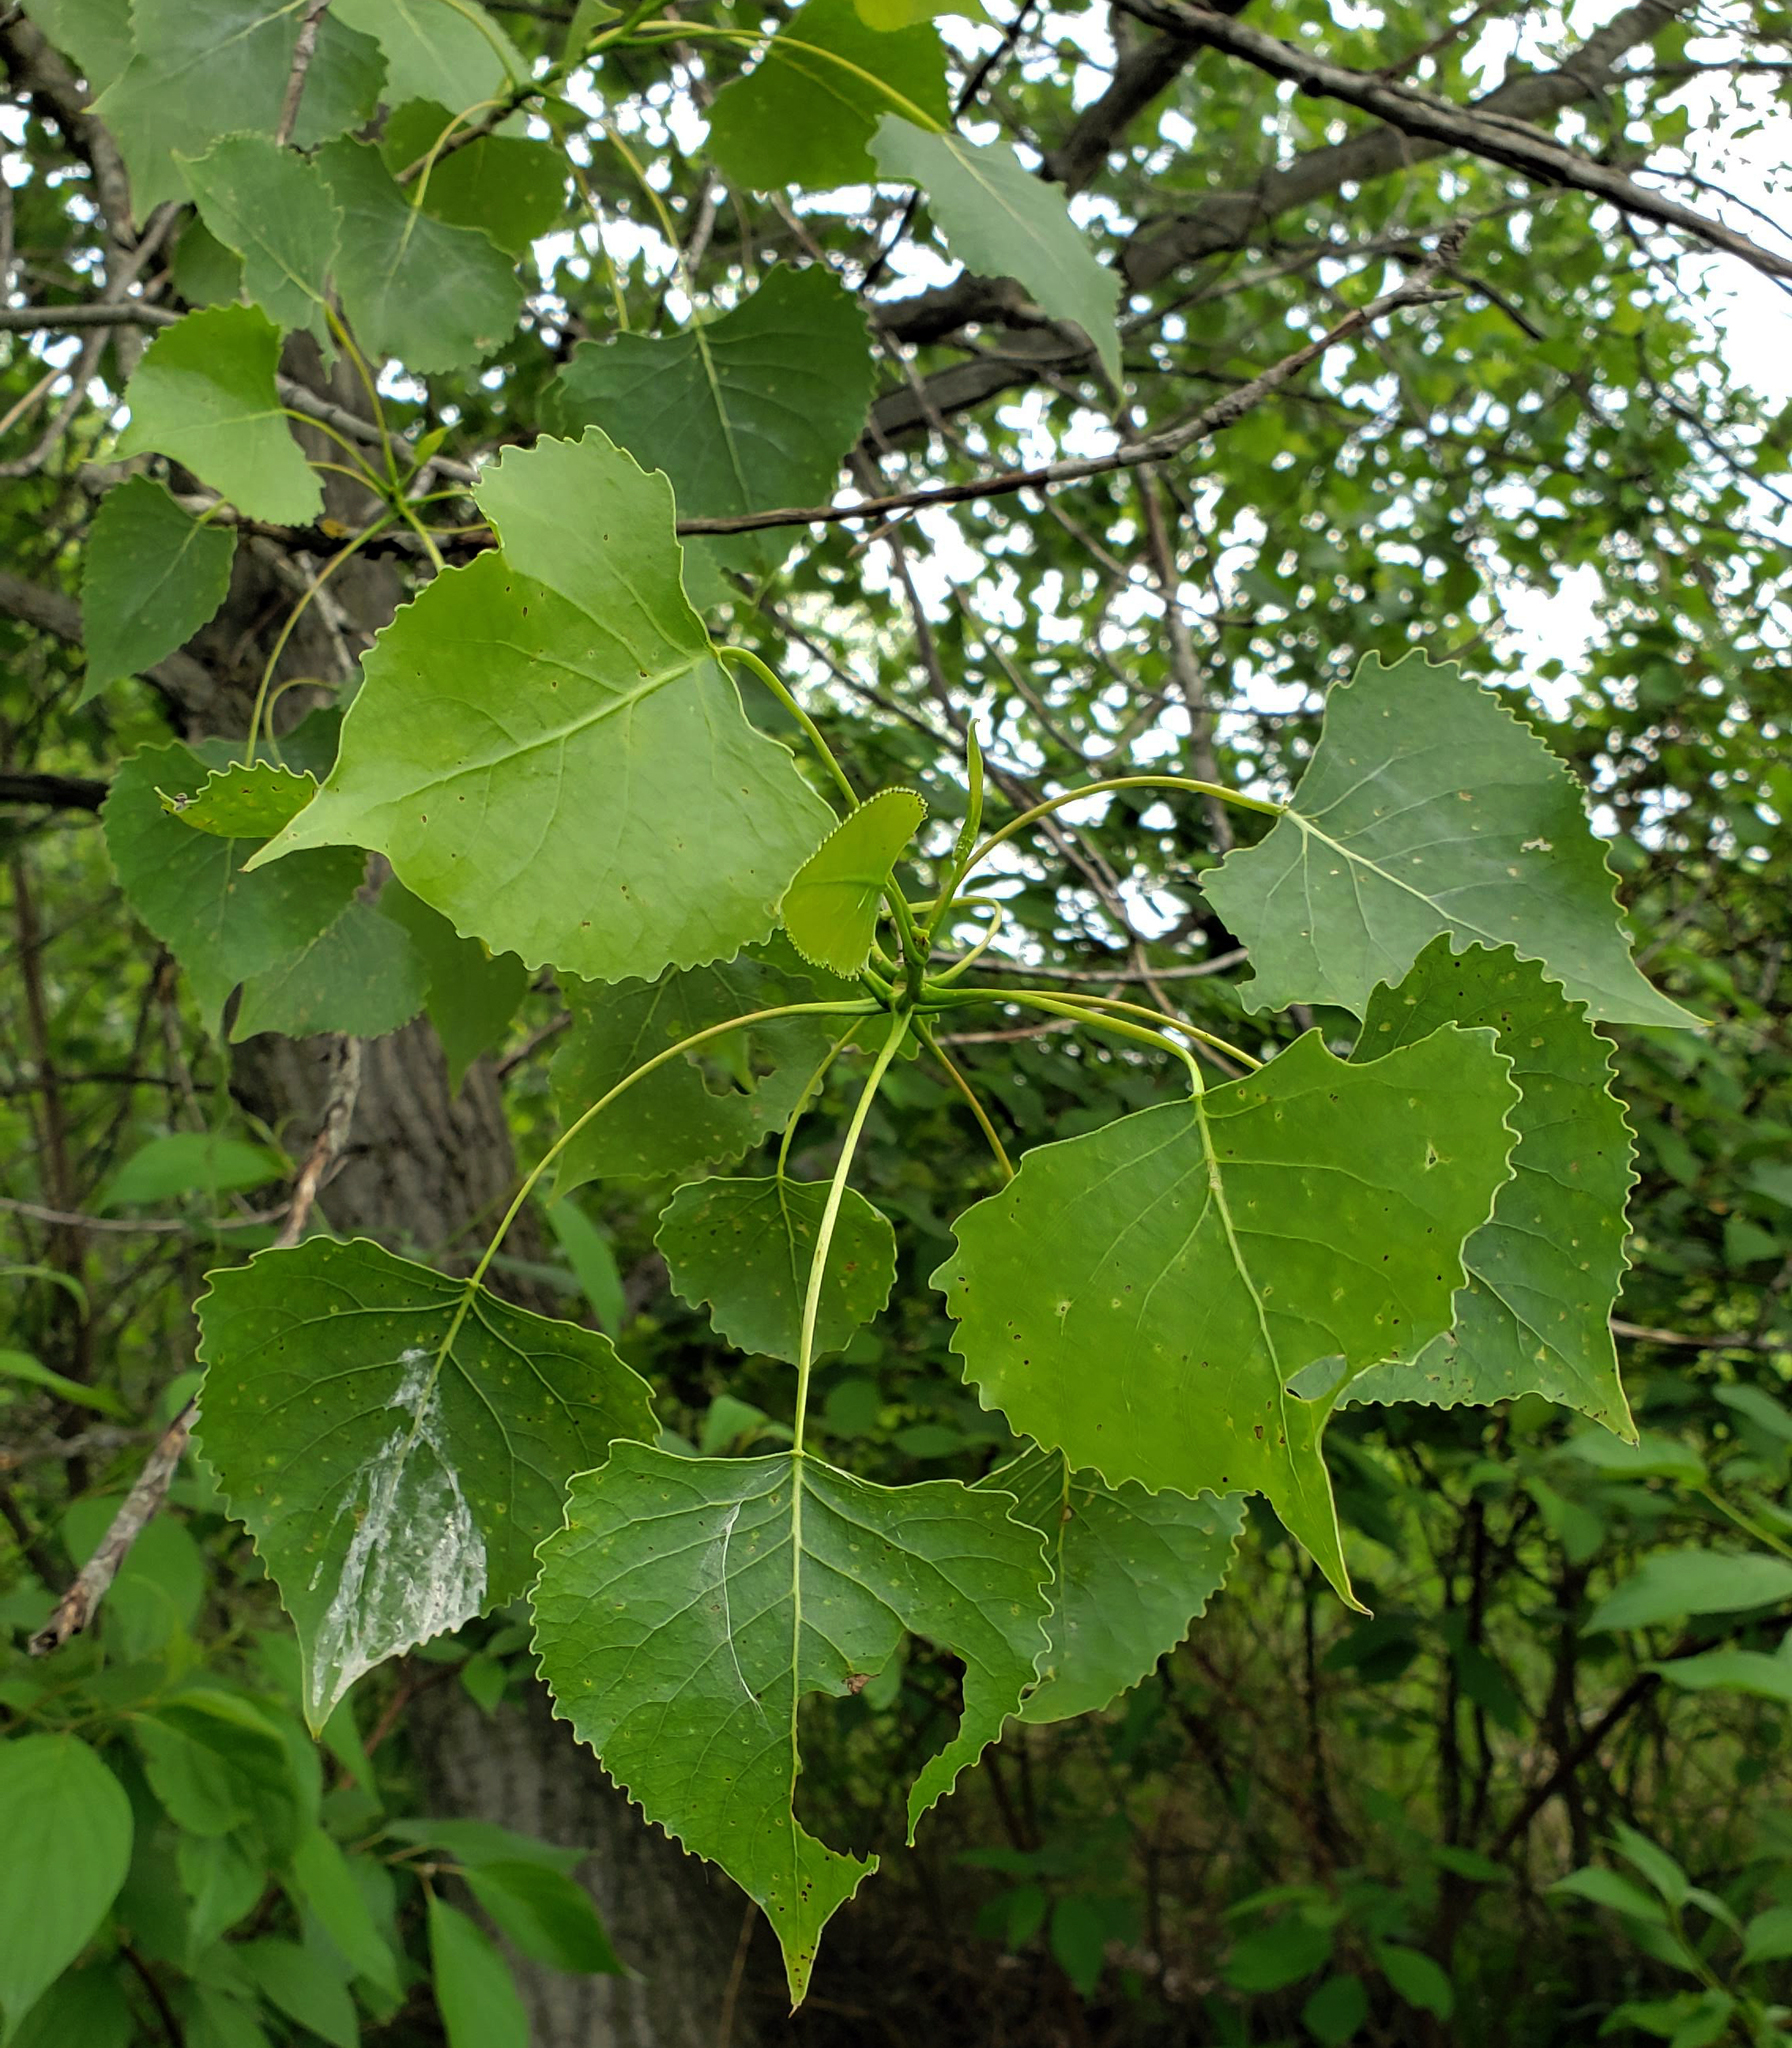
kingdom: Plantae
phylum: Tracheophyta
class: Magnoliopsida
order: Malpighiales
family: Salicaceae
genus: Populus
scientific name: Populus deltoides
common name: Eastern cottonwood
